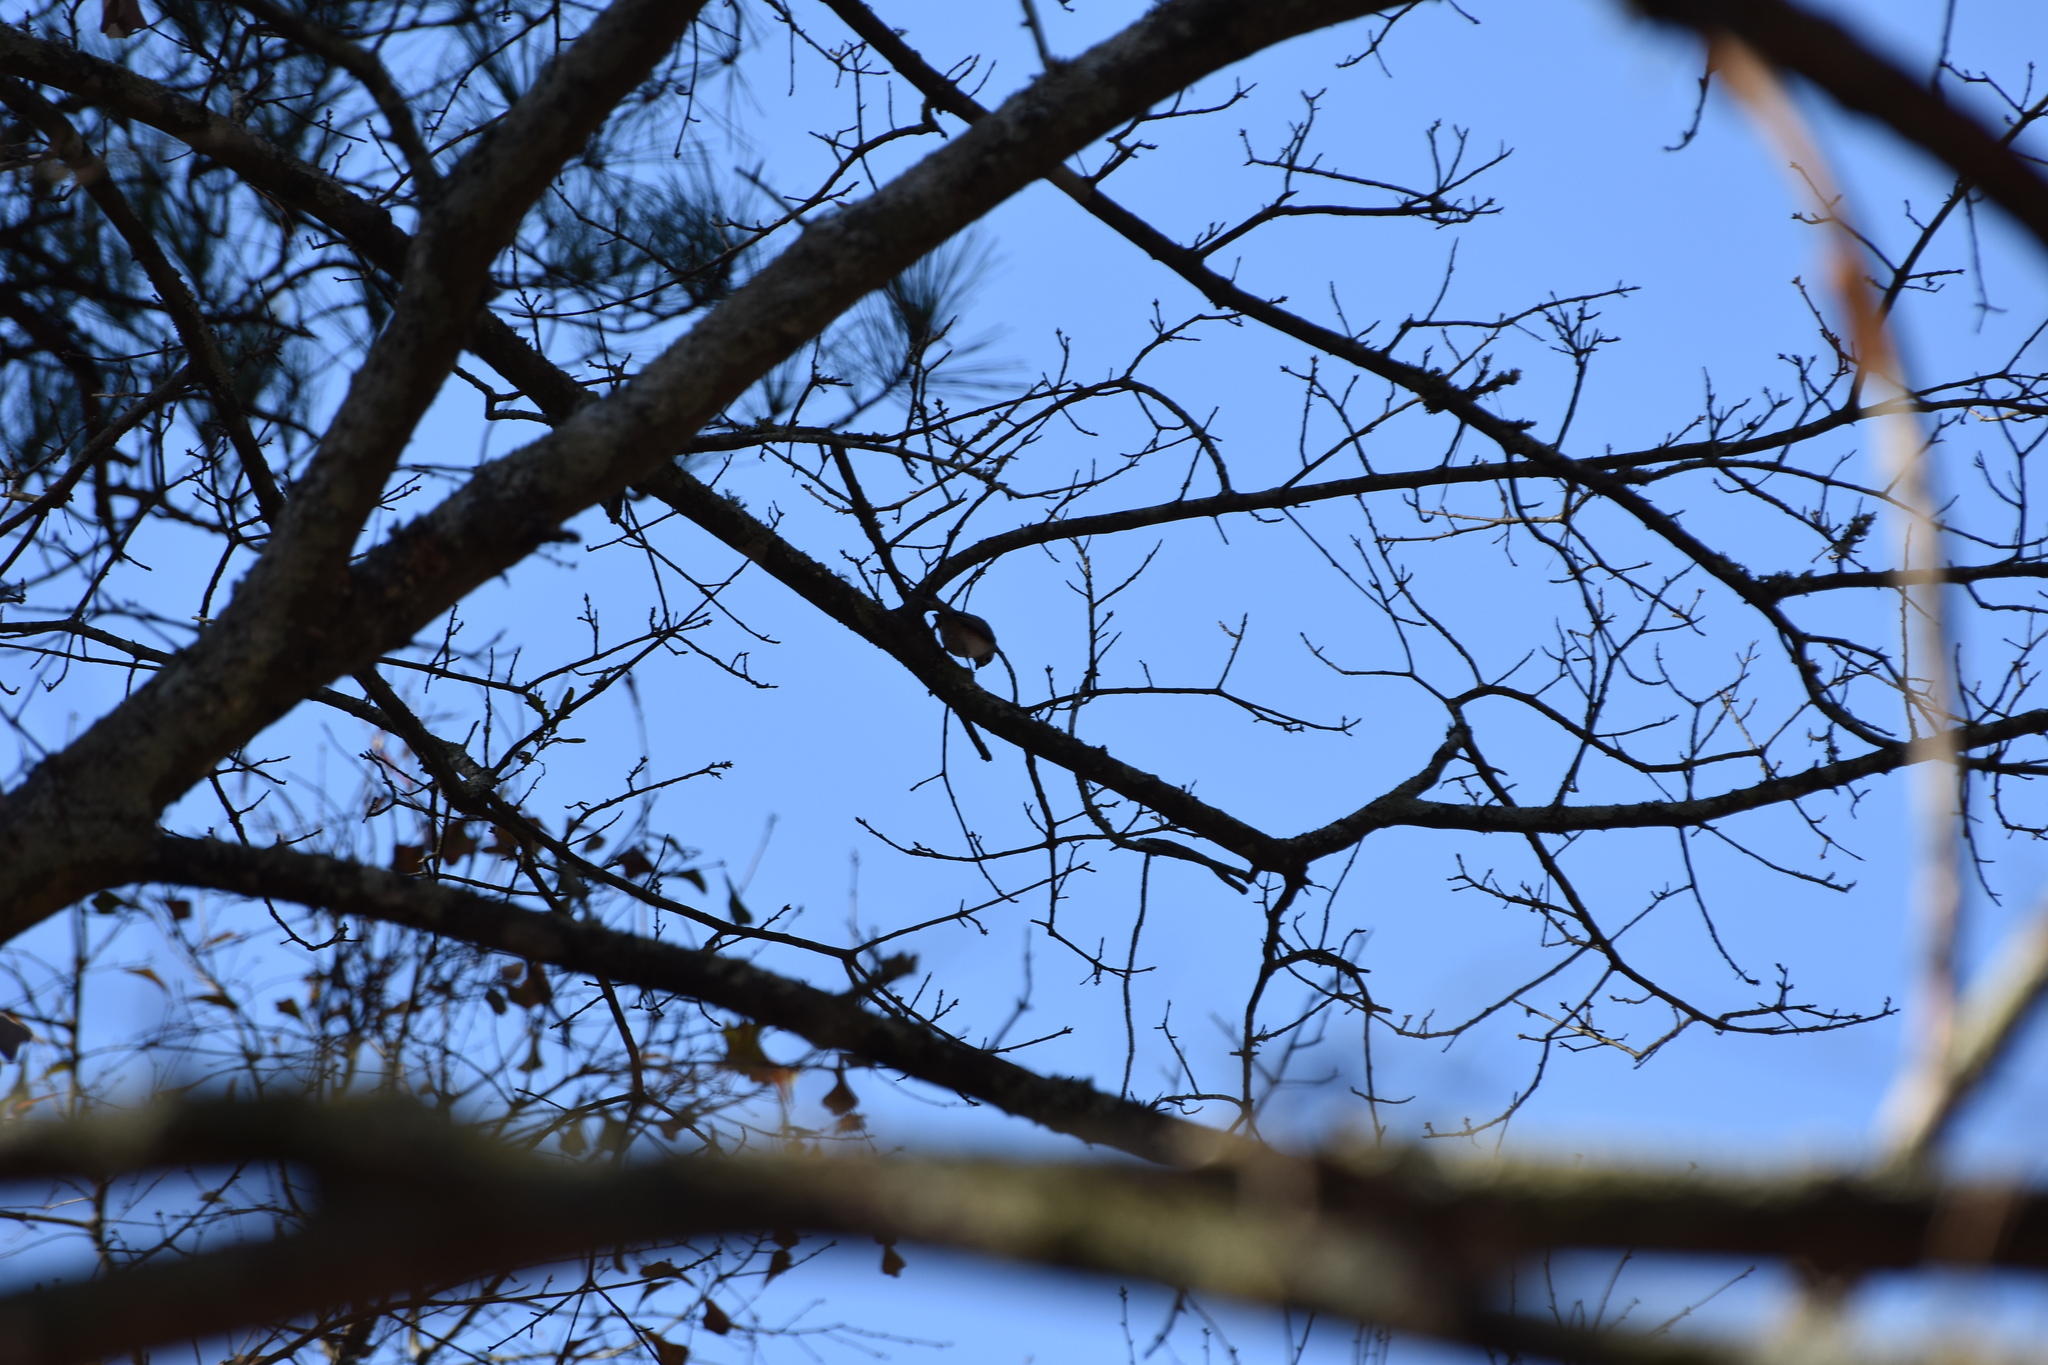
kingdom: Animalia
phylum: Chordata
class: Aves
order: Passeriformes
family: Paridae
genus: Baeolophus
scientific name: Baeolophus bicolor
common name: Tufted titmouse
